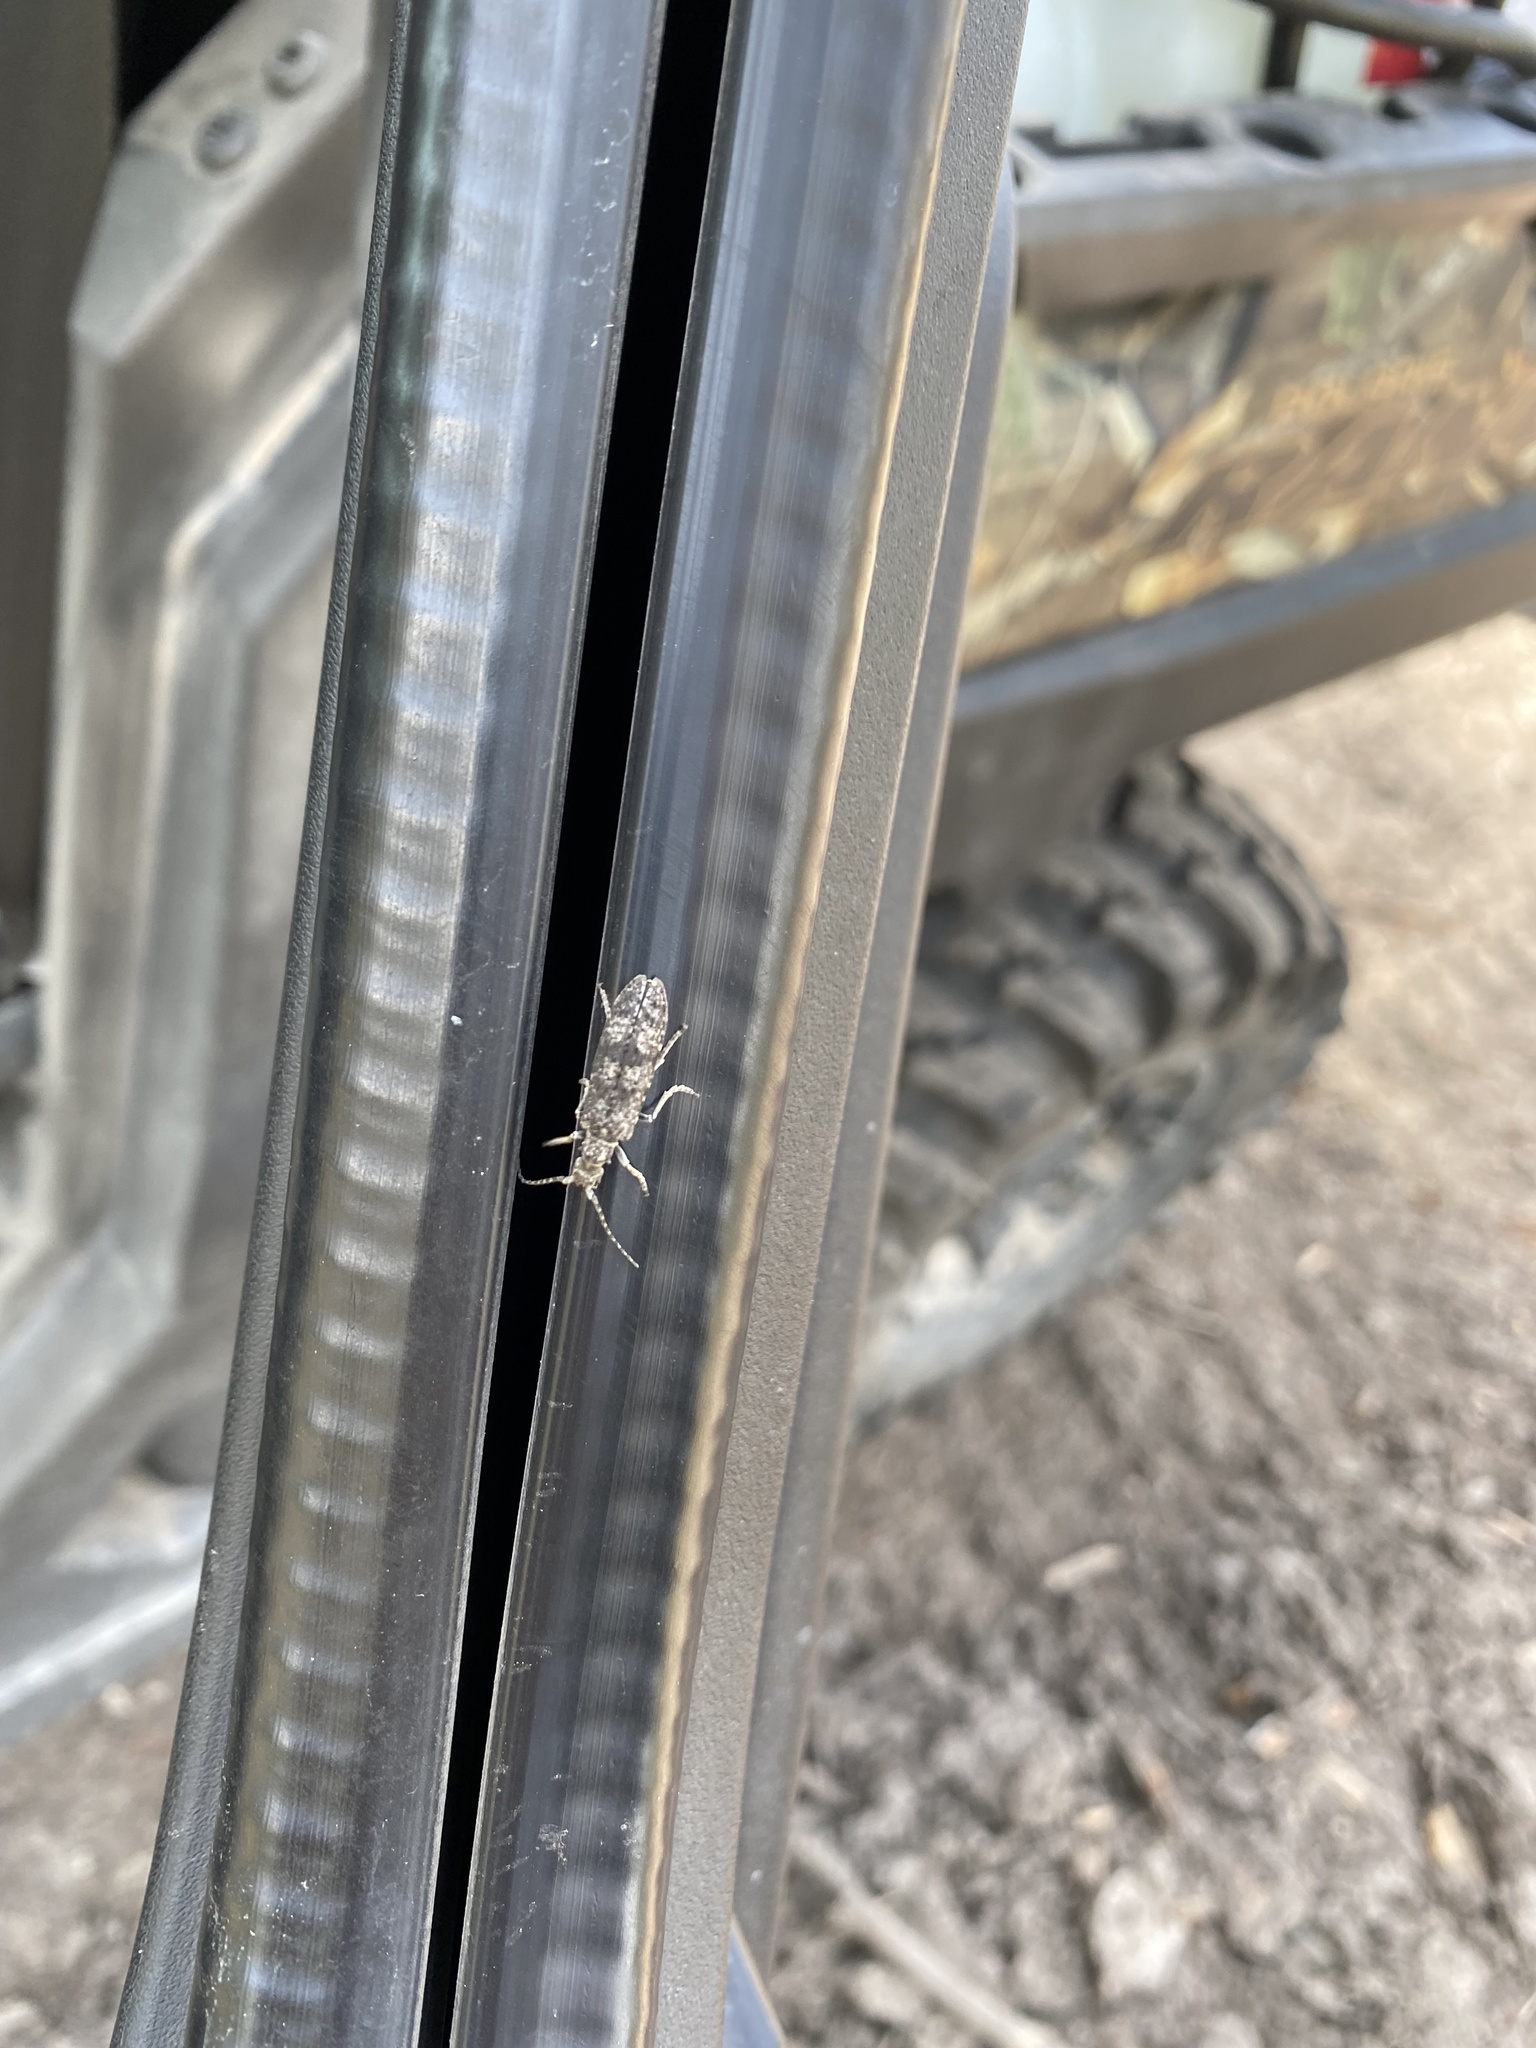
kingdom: Animalia
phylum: Arthropoda
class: Insecta
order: Coleoptera
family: Cupedidae
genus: Priacma
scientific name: Priacma serrata
